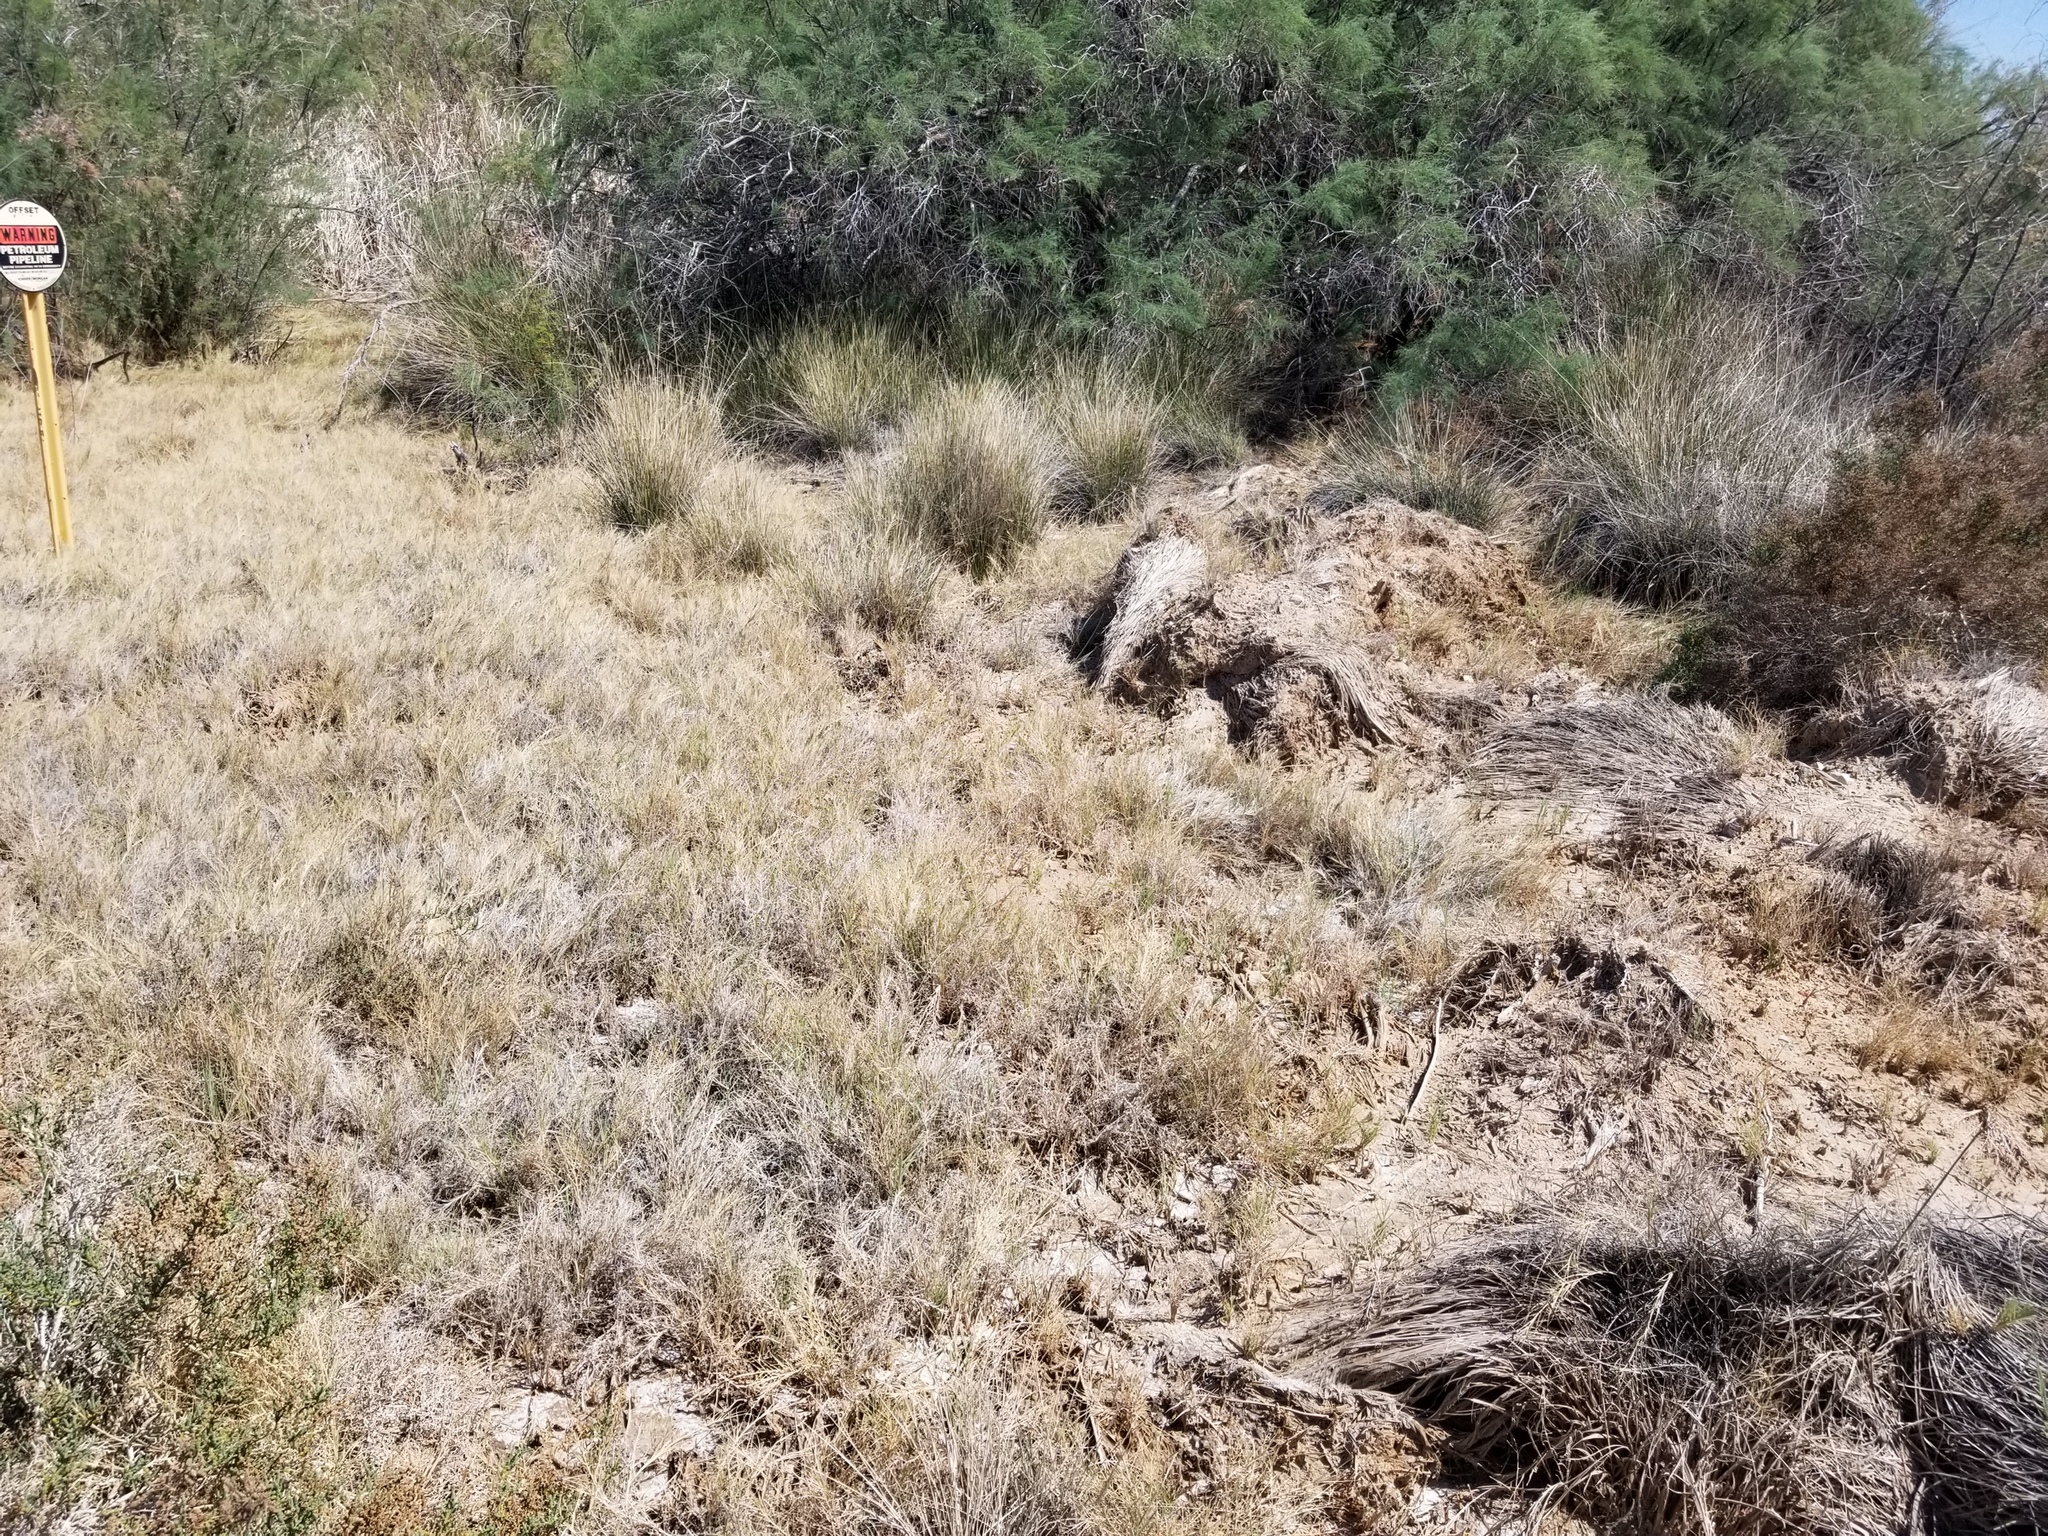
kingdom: Plantae
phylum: Tracheophyta
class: Liliopsida
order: Poales
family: Poaceae
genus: Distichlis
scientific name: Distichlis spicata
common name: Saltgrass
